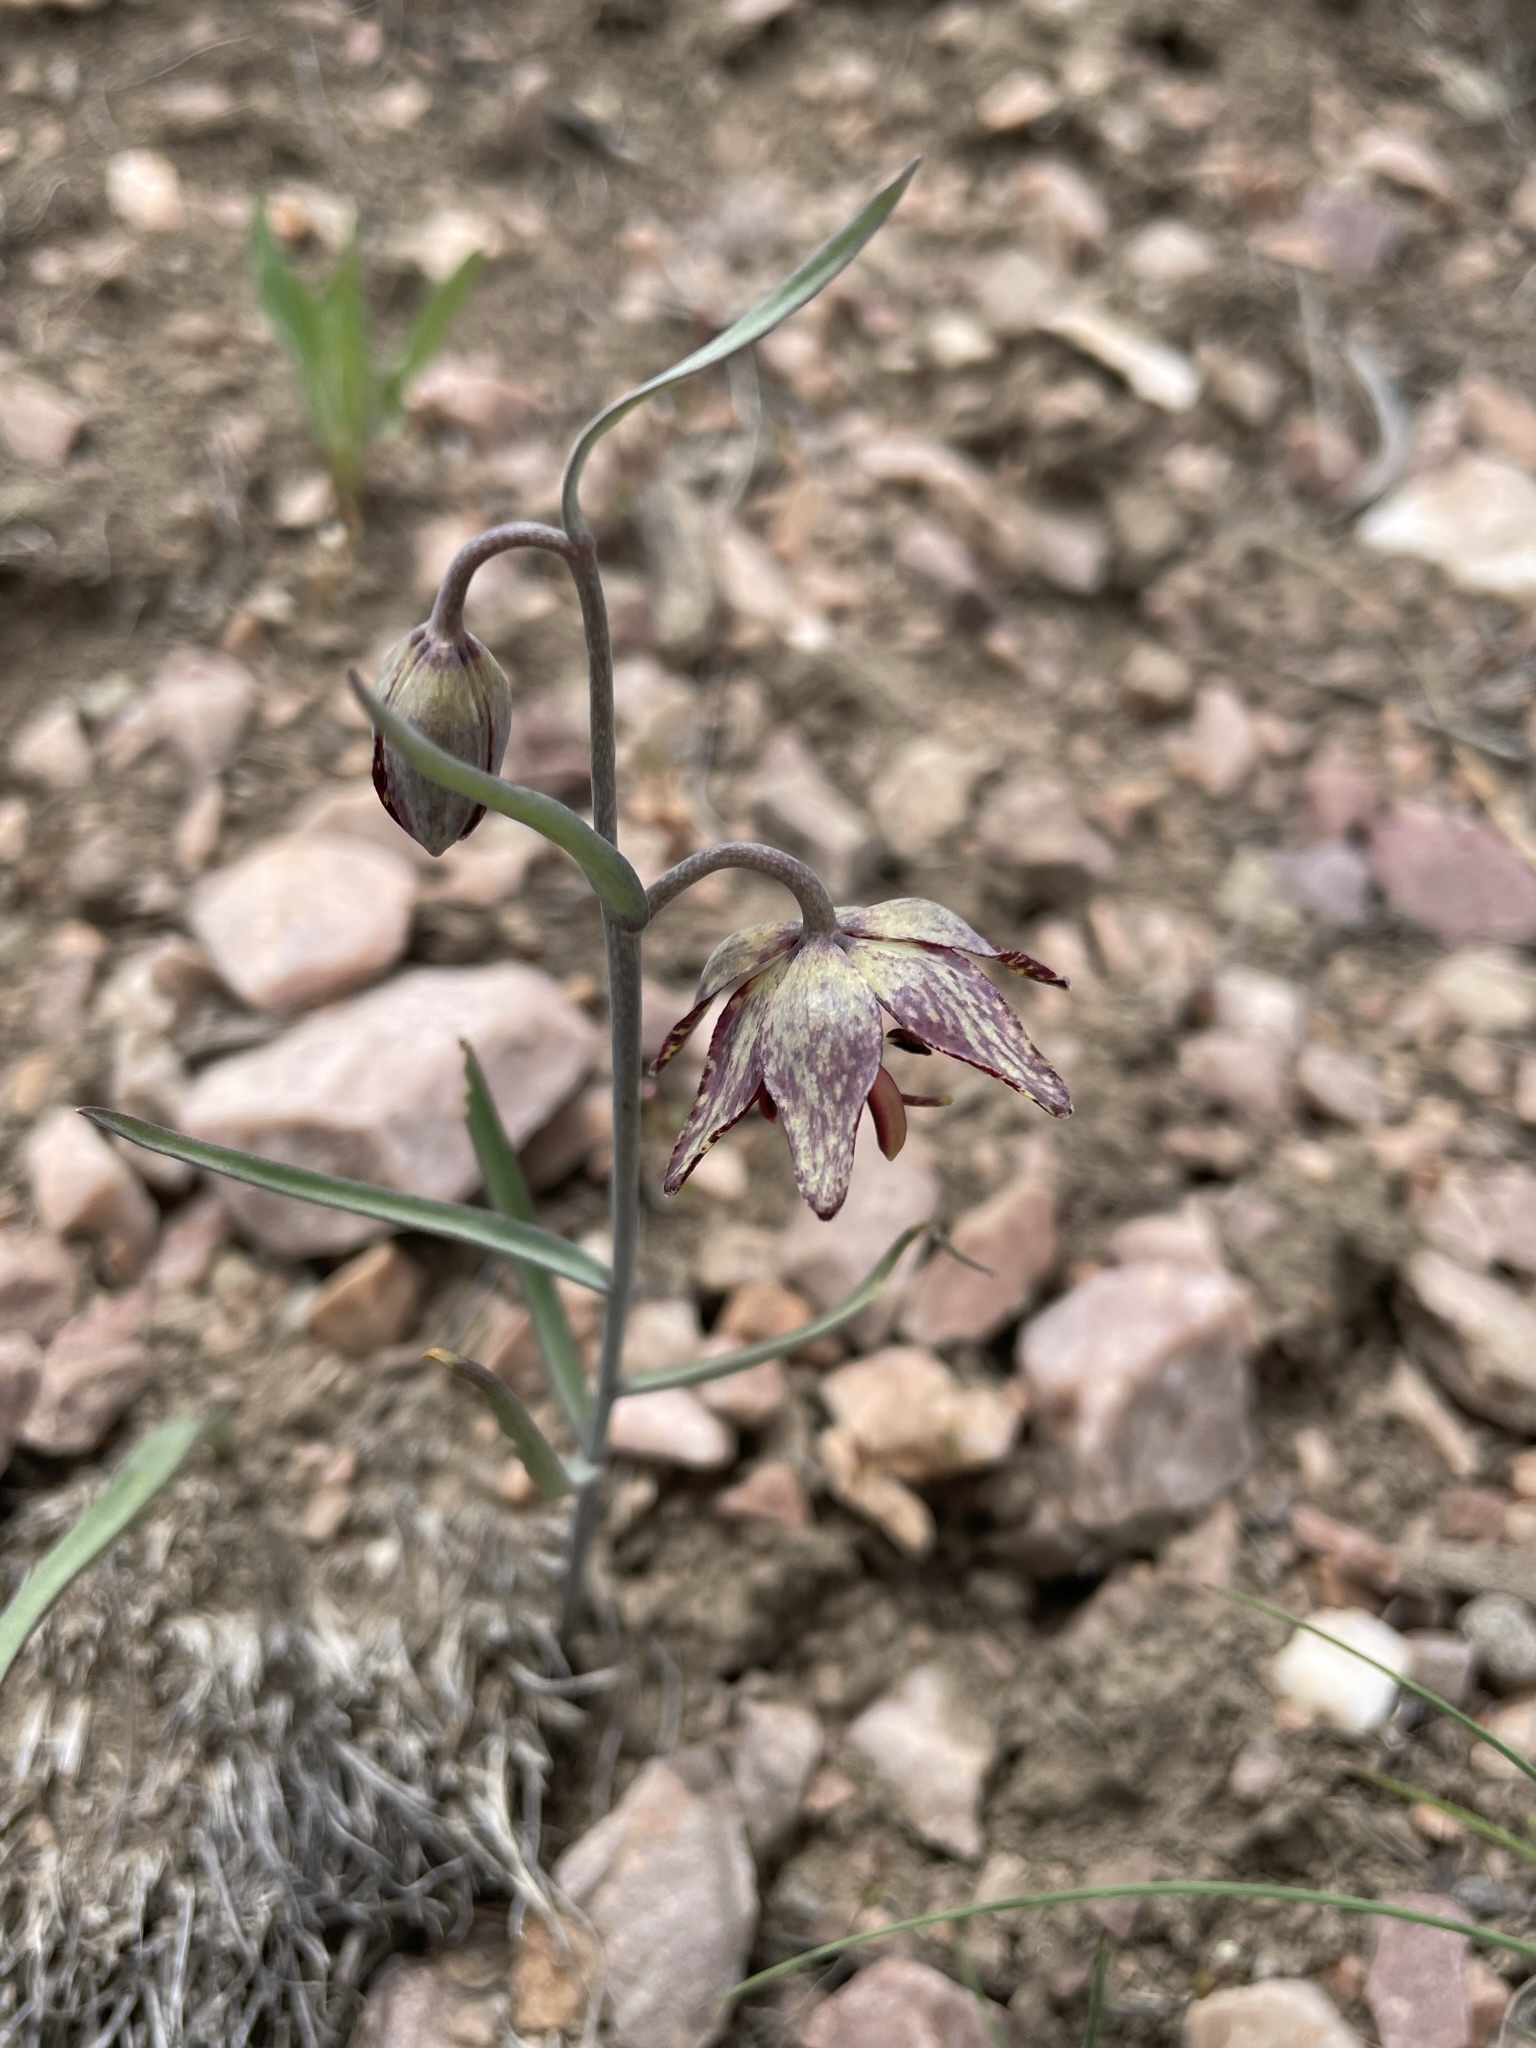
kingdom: Plantae
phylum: Tracheophyta
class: Liliopsida
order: Liliales
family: Liliaceae
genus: Fritillaria
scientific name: Fritillaria atropurpurea
